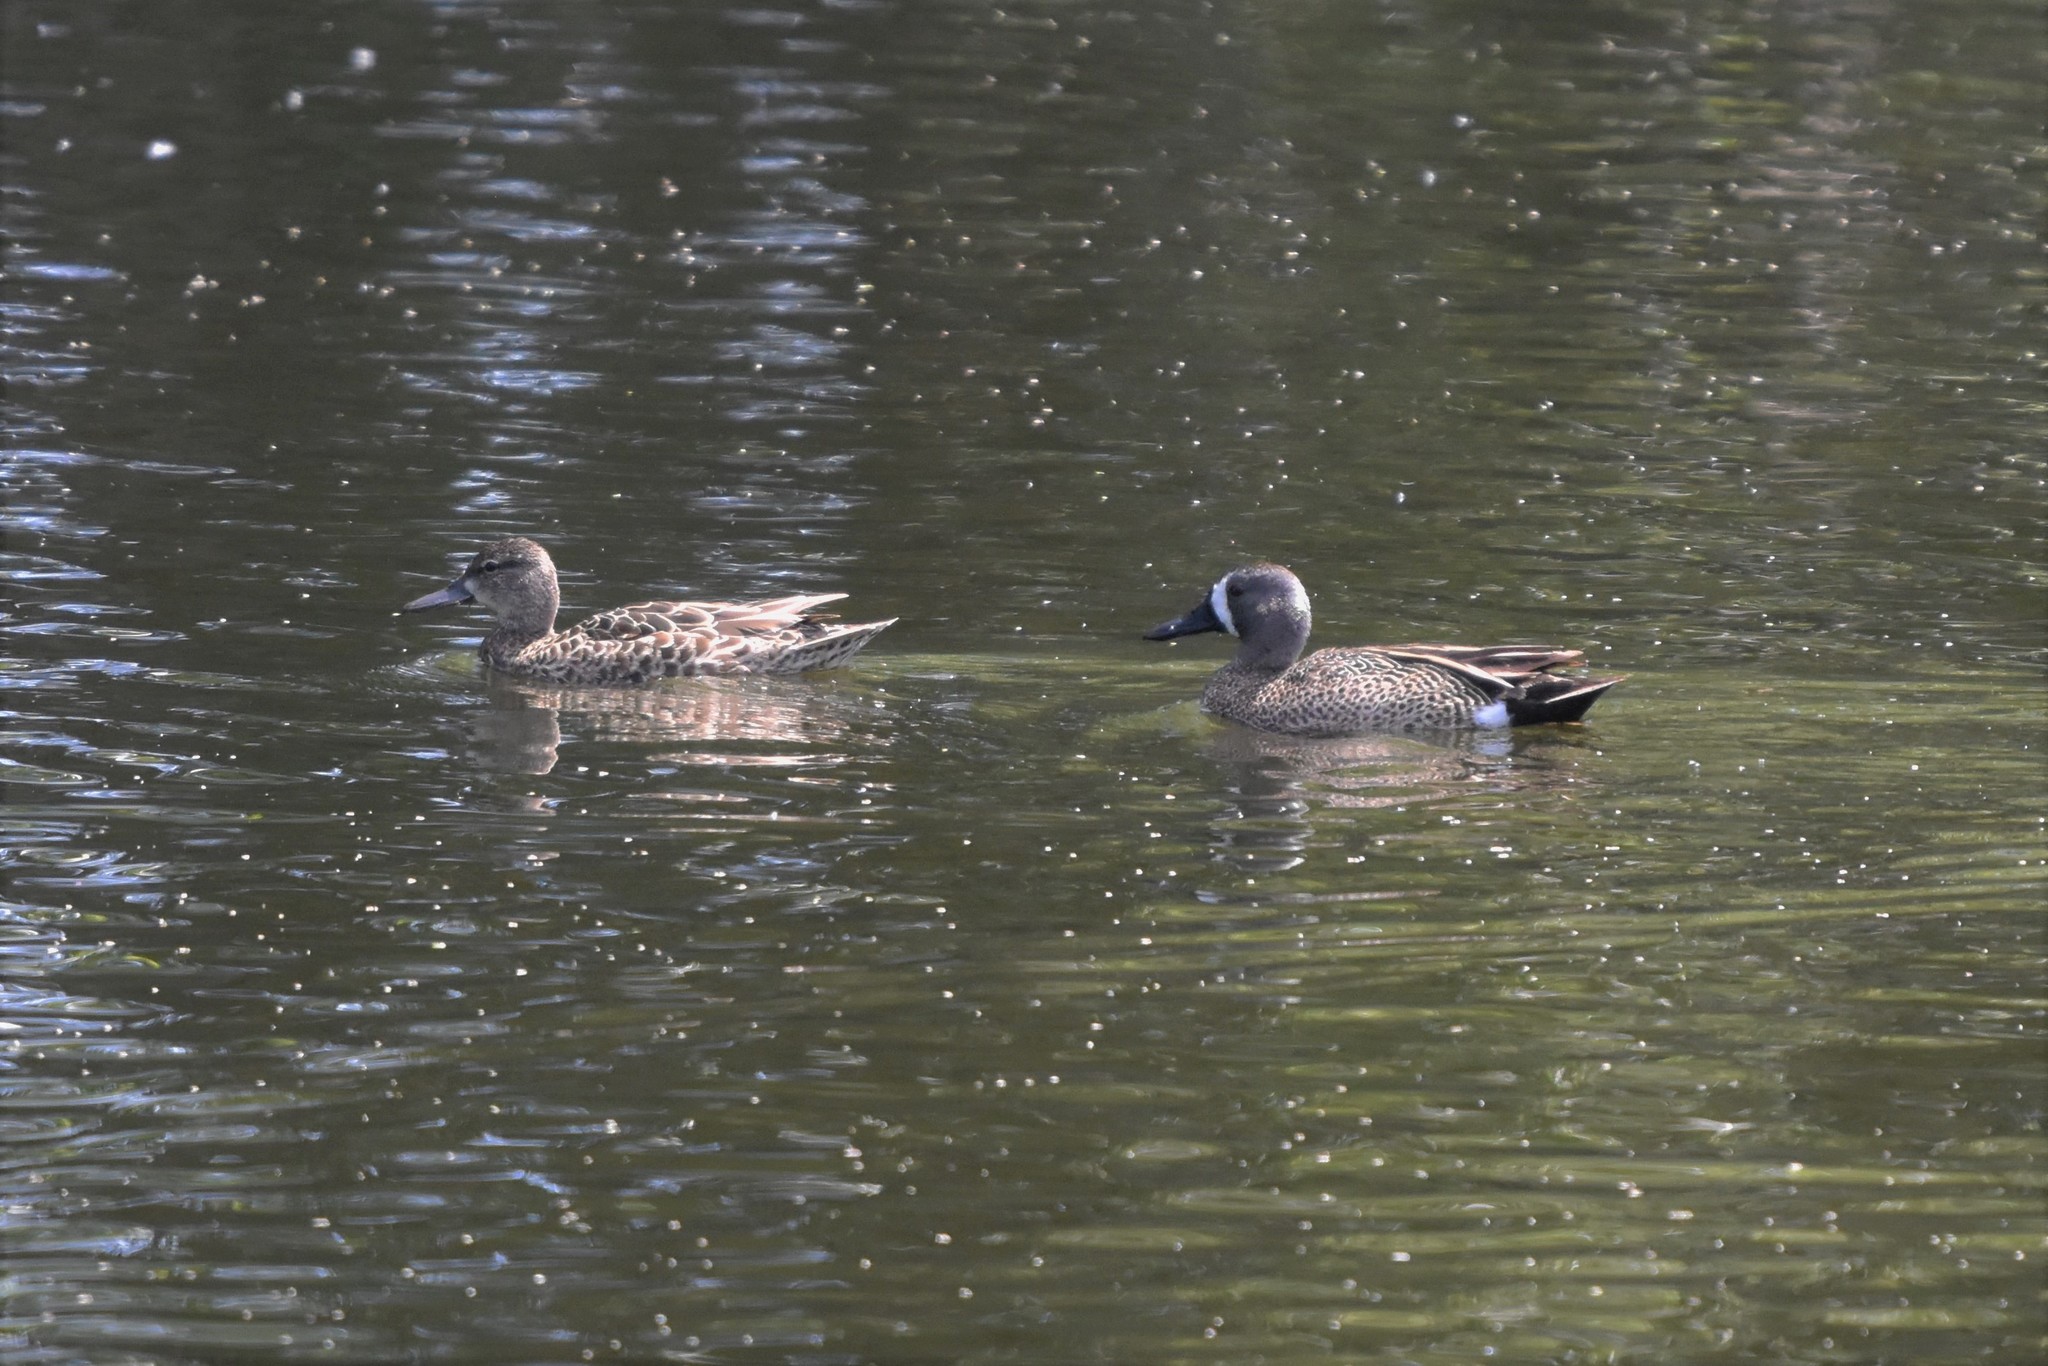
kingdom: Animalia
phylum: Chordata
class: Aves
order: Anseriformes
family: Anatidae
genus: Spatula
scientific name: Spatula discors
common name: Blue-winged teal
